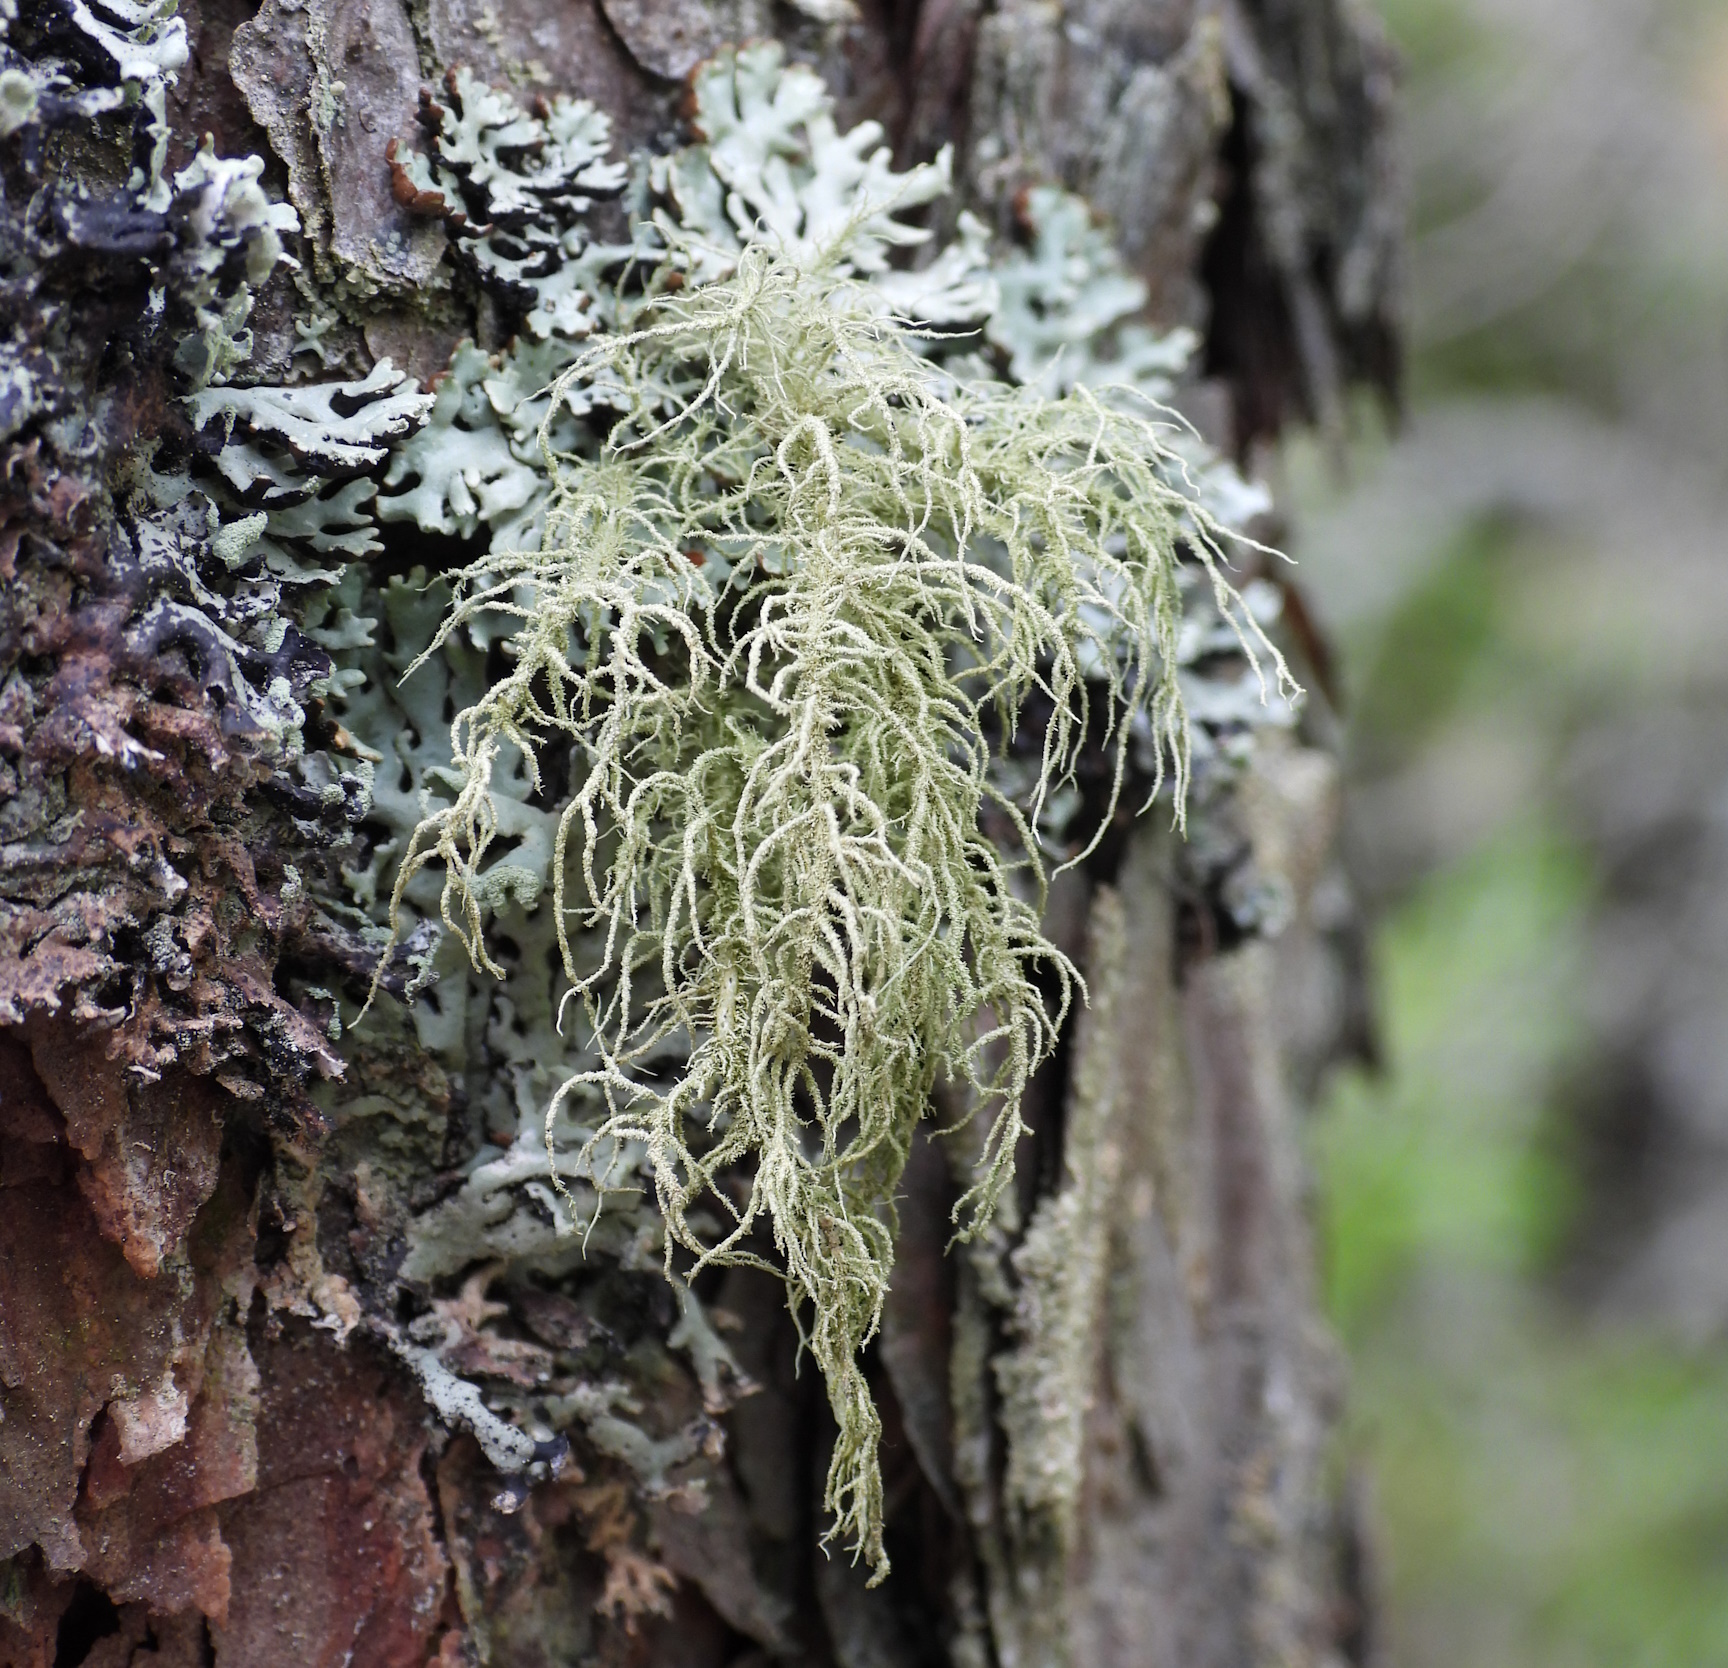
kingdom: Fungi
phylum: Ascomycota
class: Lecanoromycetes
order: Lecanorales
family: Parmeliaceae
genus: Usnea
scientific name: Usnea hirta
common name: Bristly beard lichen
